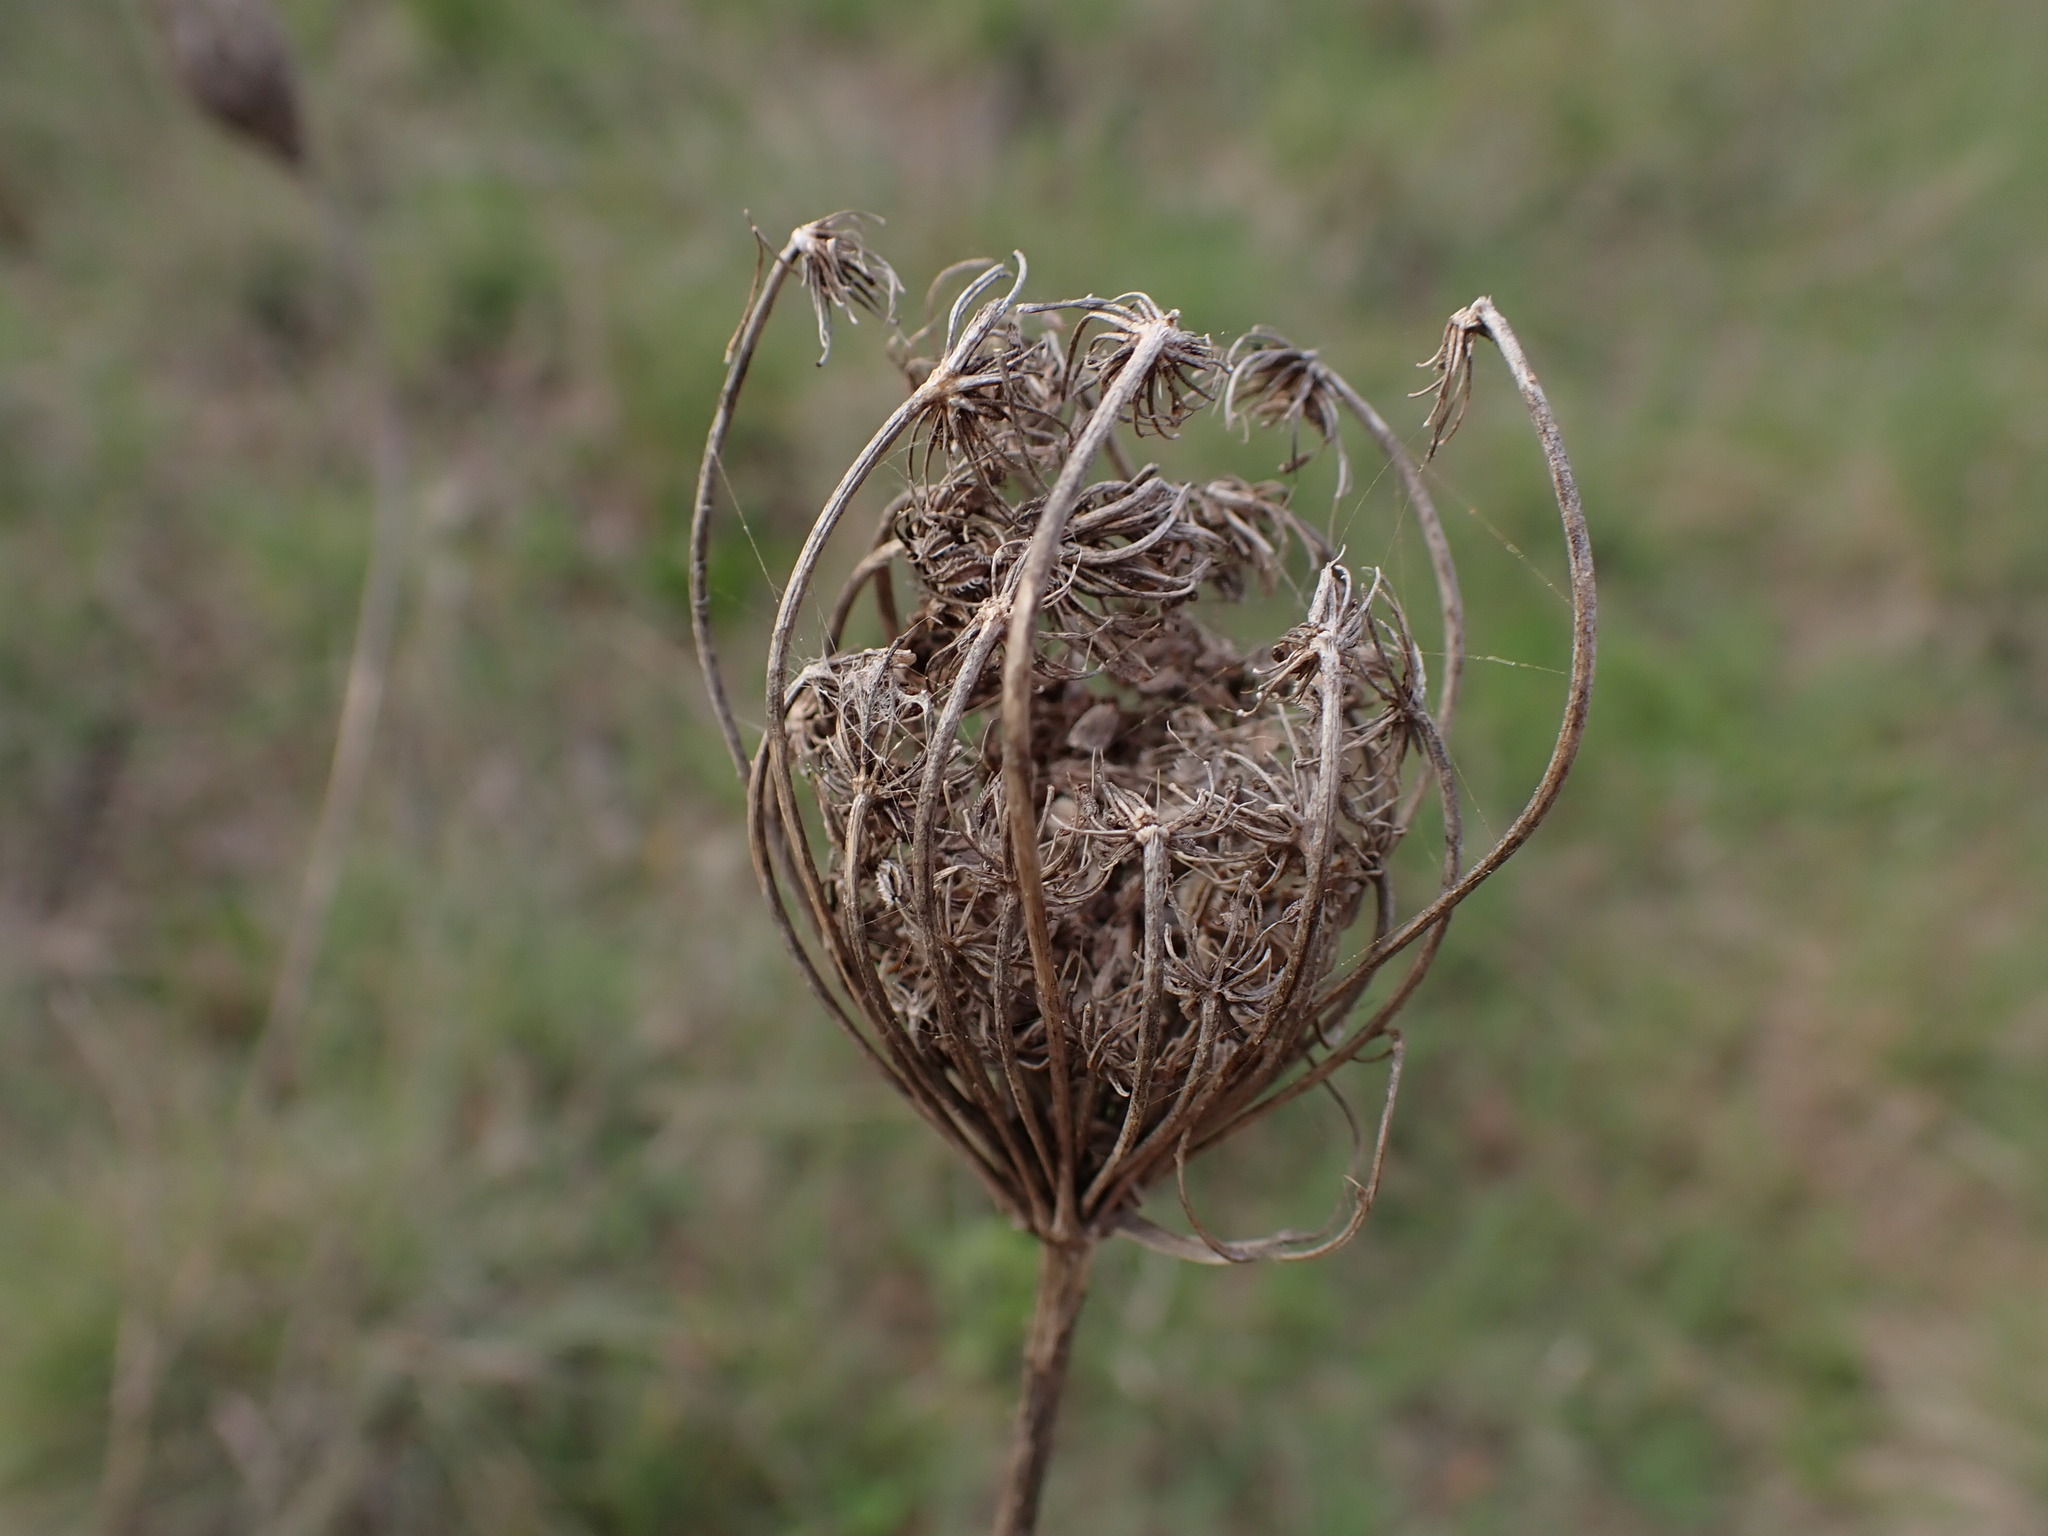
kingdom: Plantae
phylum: Tracheophyta
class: Magnoliopsida
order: Apiales
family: Apiaceae
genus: Daucus
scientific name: Daucus carota
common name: Wild carrot
